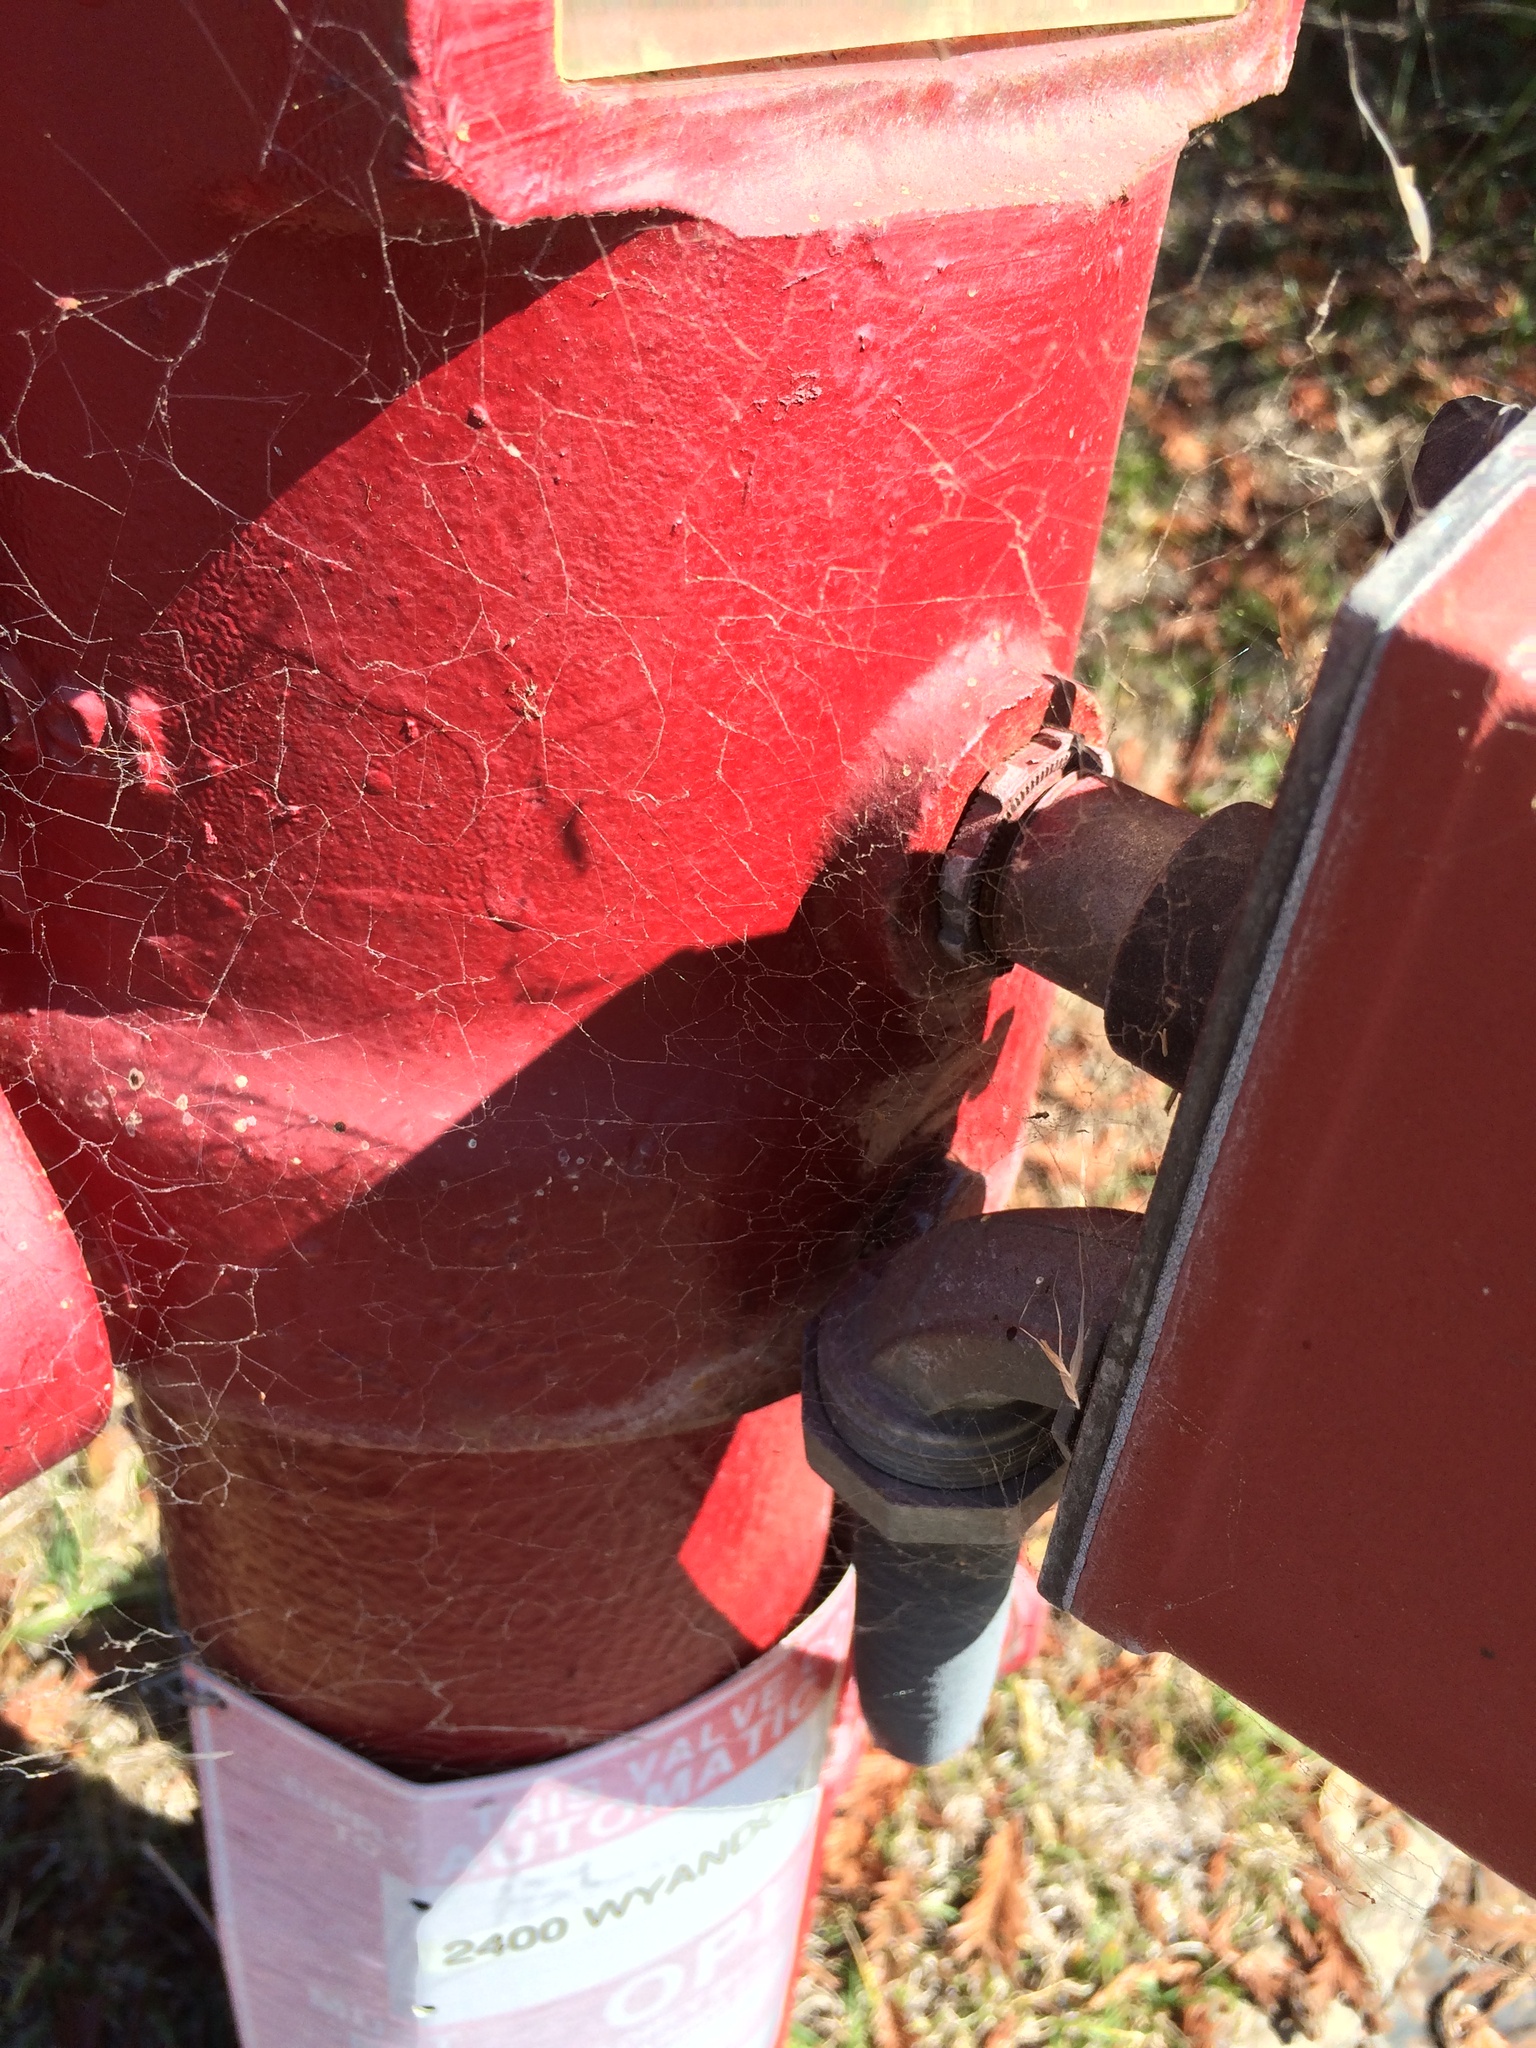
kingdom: Animalia
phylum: Arthropoda
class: Arachnida
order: Araneae
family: Desidae
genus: Badumna
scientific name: Badumna longinqua
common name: Gray house spider
